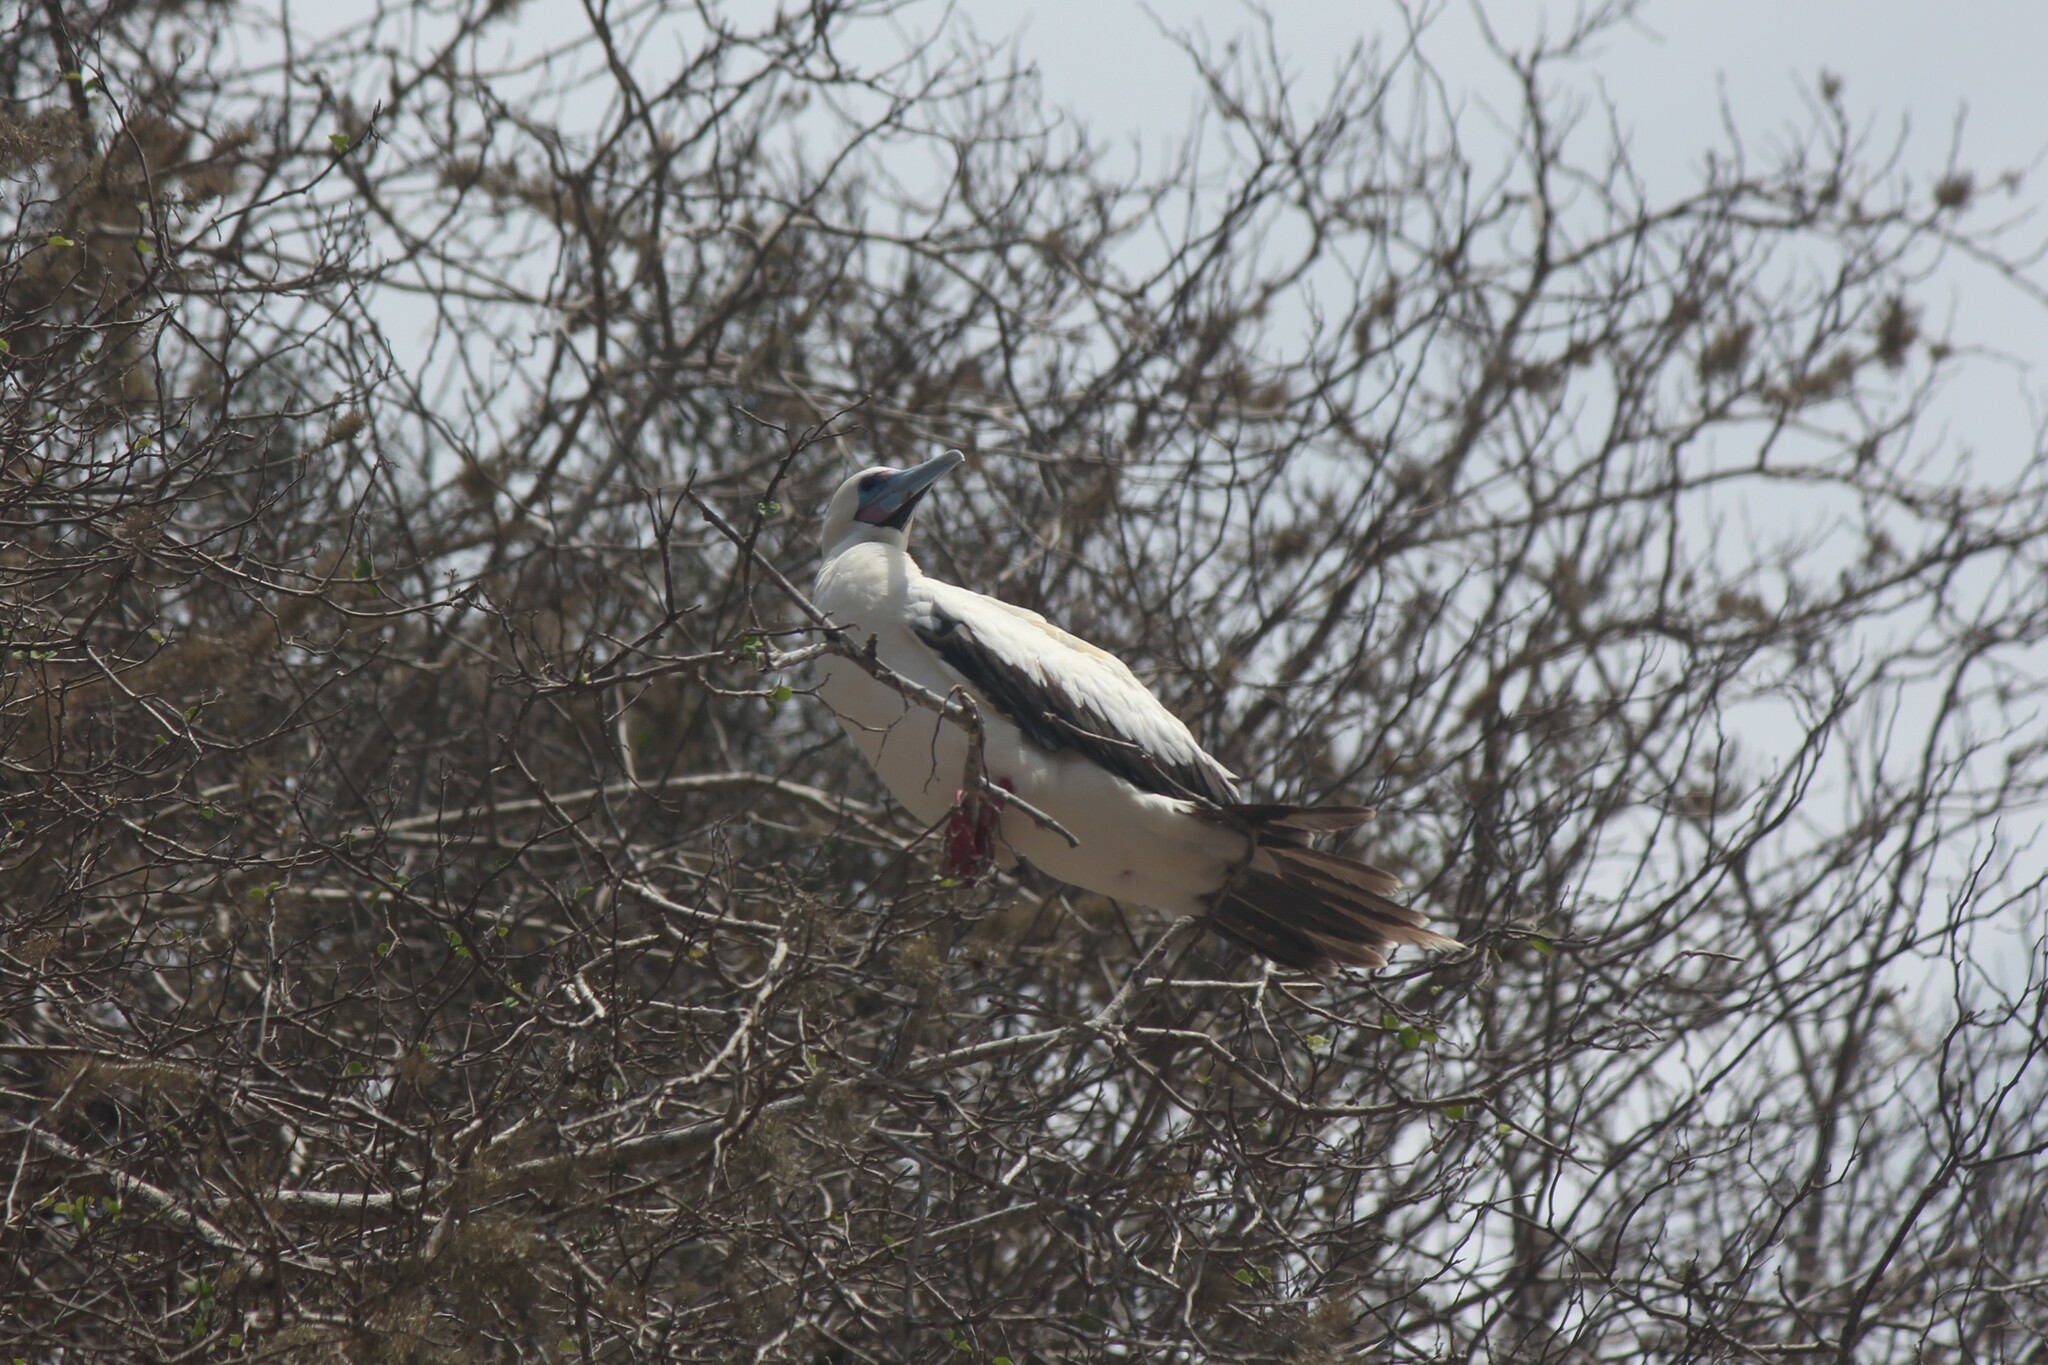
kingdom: Animalia
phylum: Chordata
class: Aves
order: Suliformes
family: Sulidae
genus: Sula
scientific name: Sula sula
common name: Red-footed booby
